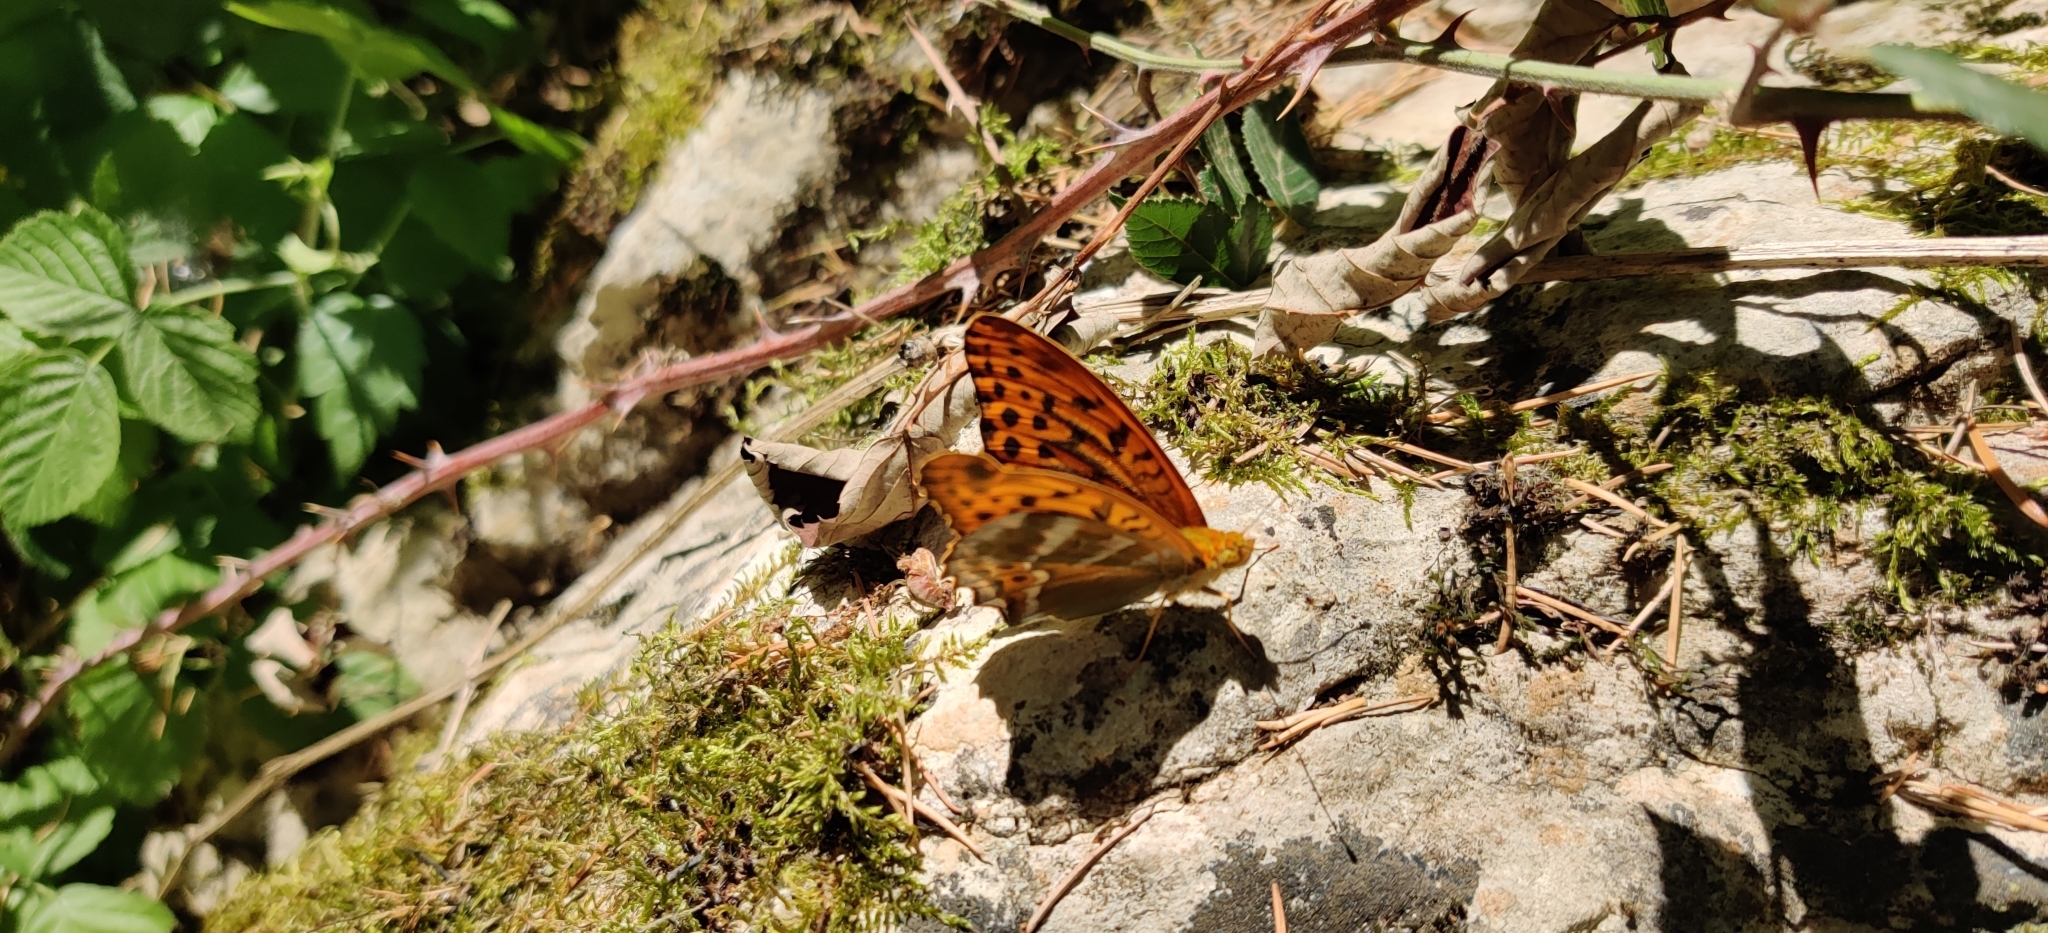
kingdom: Animalia
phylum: Arthropoda
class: Insecta
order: Lepidoptera
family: Nymphalidae
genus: Argynnis
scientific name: Argynnis paphia
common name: Silver-washed fritillary
